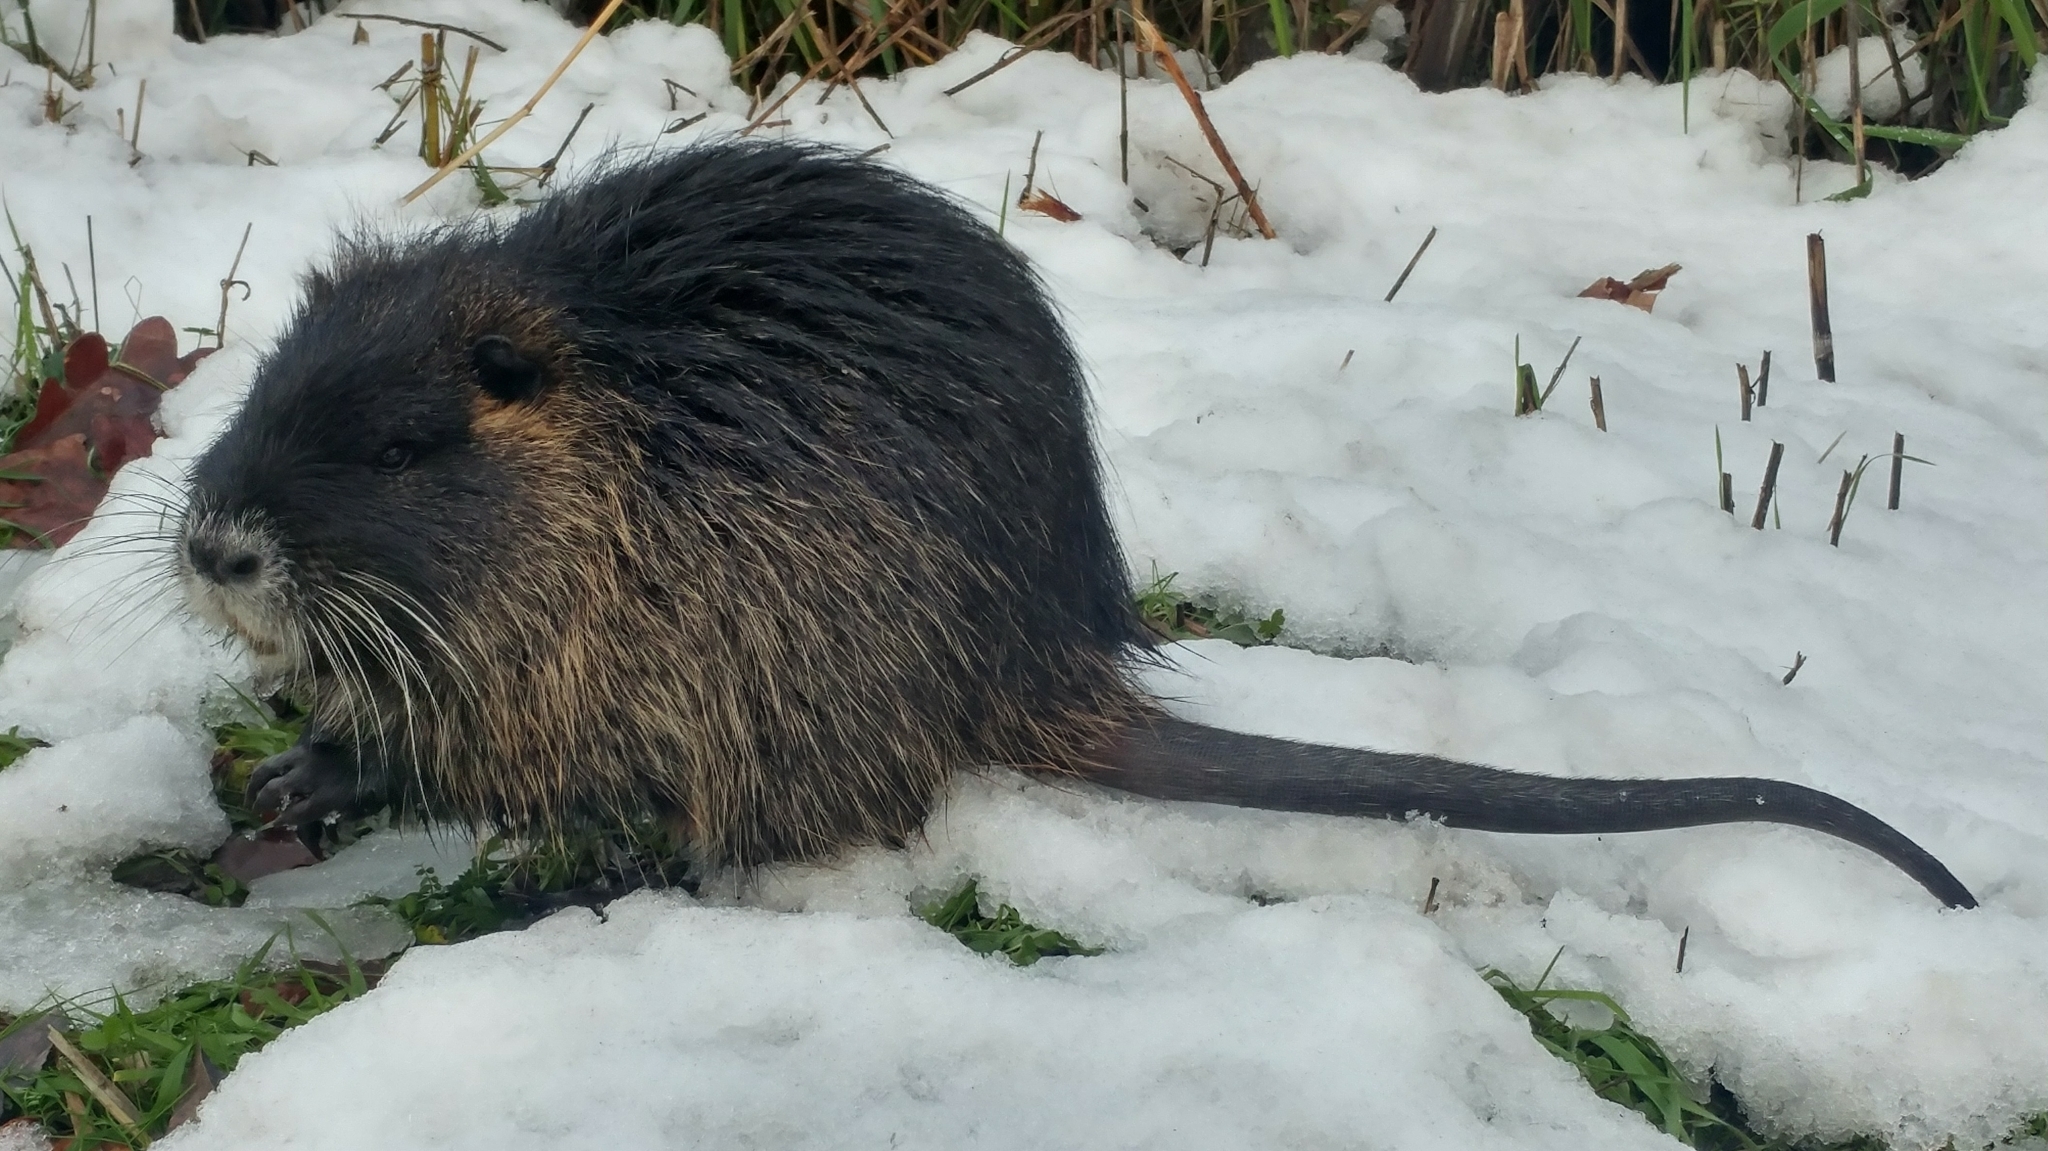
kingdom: Animalia
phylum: Chordata
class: Mammalia
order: Rodentia
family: Myocastoridae
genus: Myocastor
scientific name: Myocastor coypus
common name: Coypu
